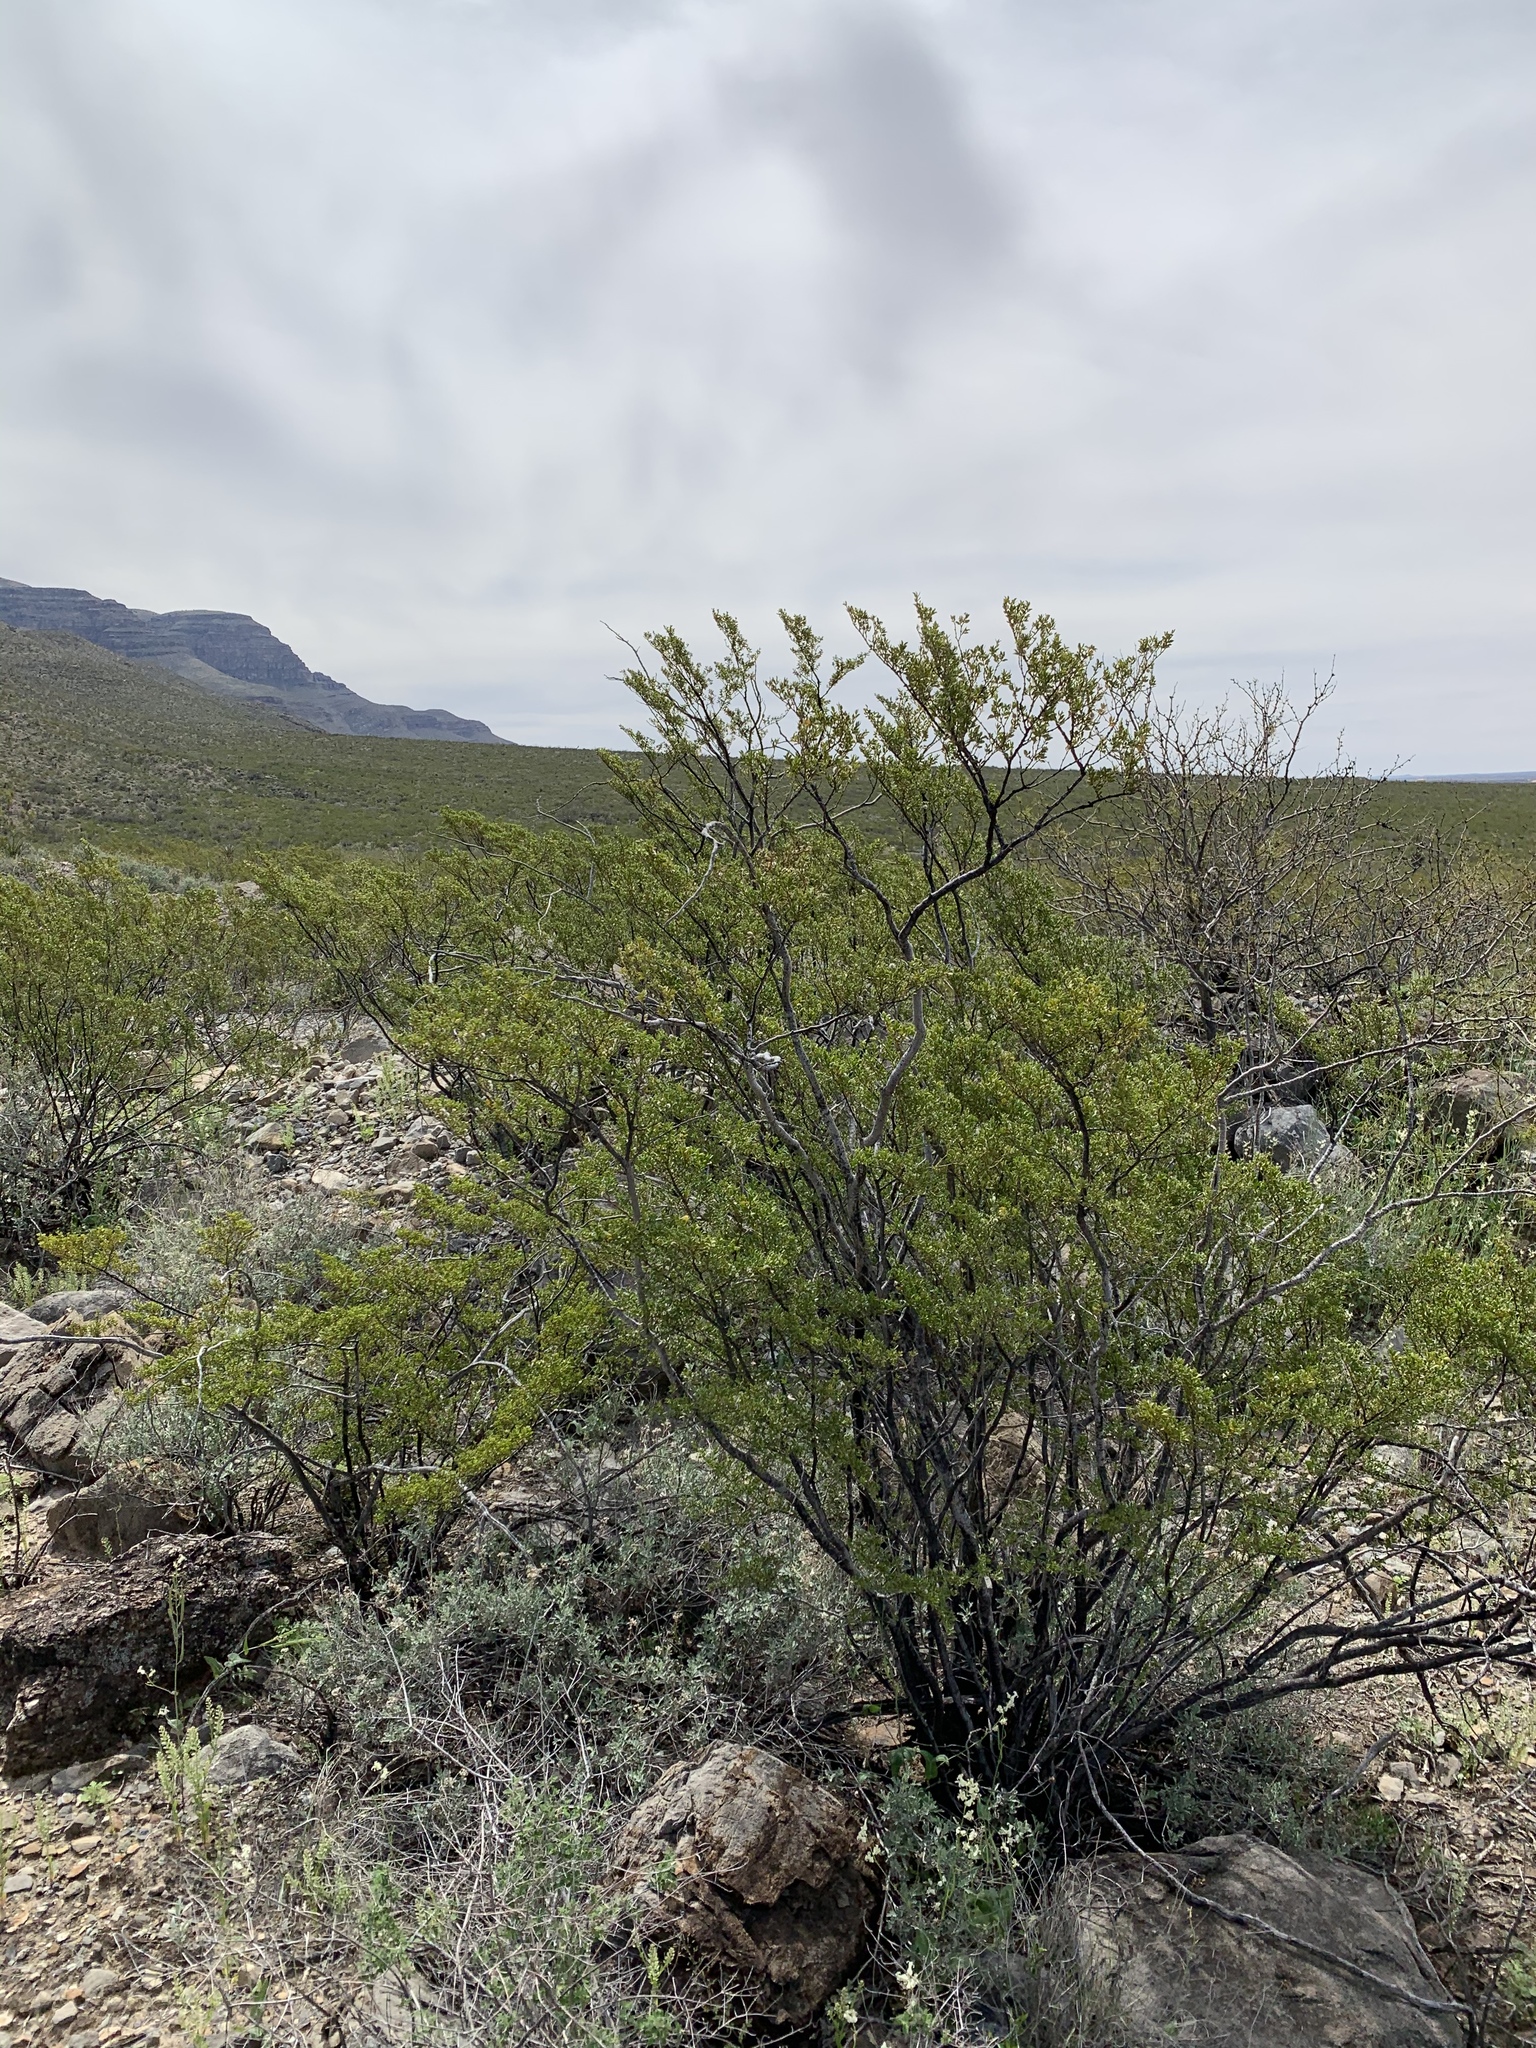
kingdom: Plantae
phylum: Tracheophyta
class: Magnoliopsida
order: Zygophyllales
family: Zygophyllaceae
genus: Larrea
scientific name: Larrea tridentata
